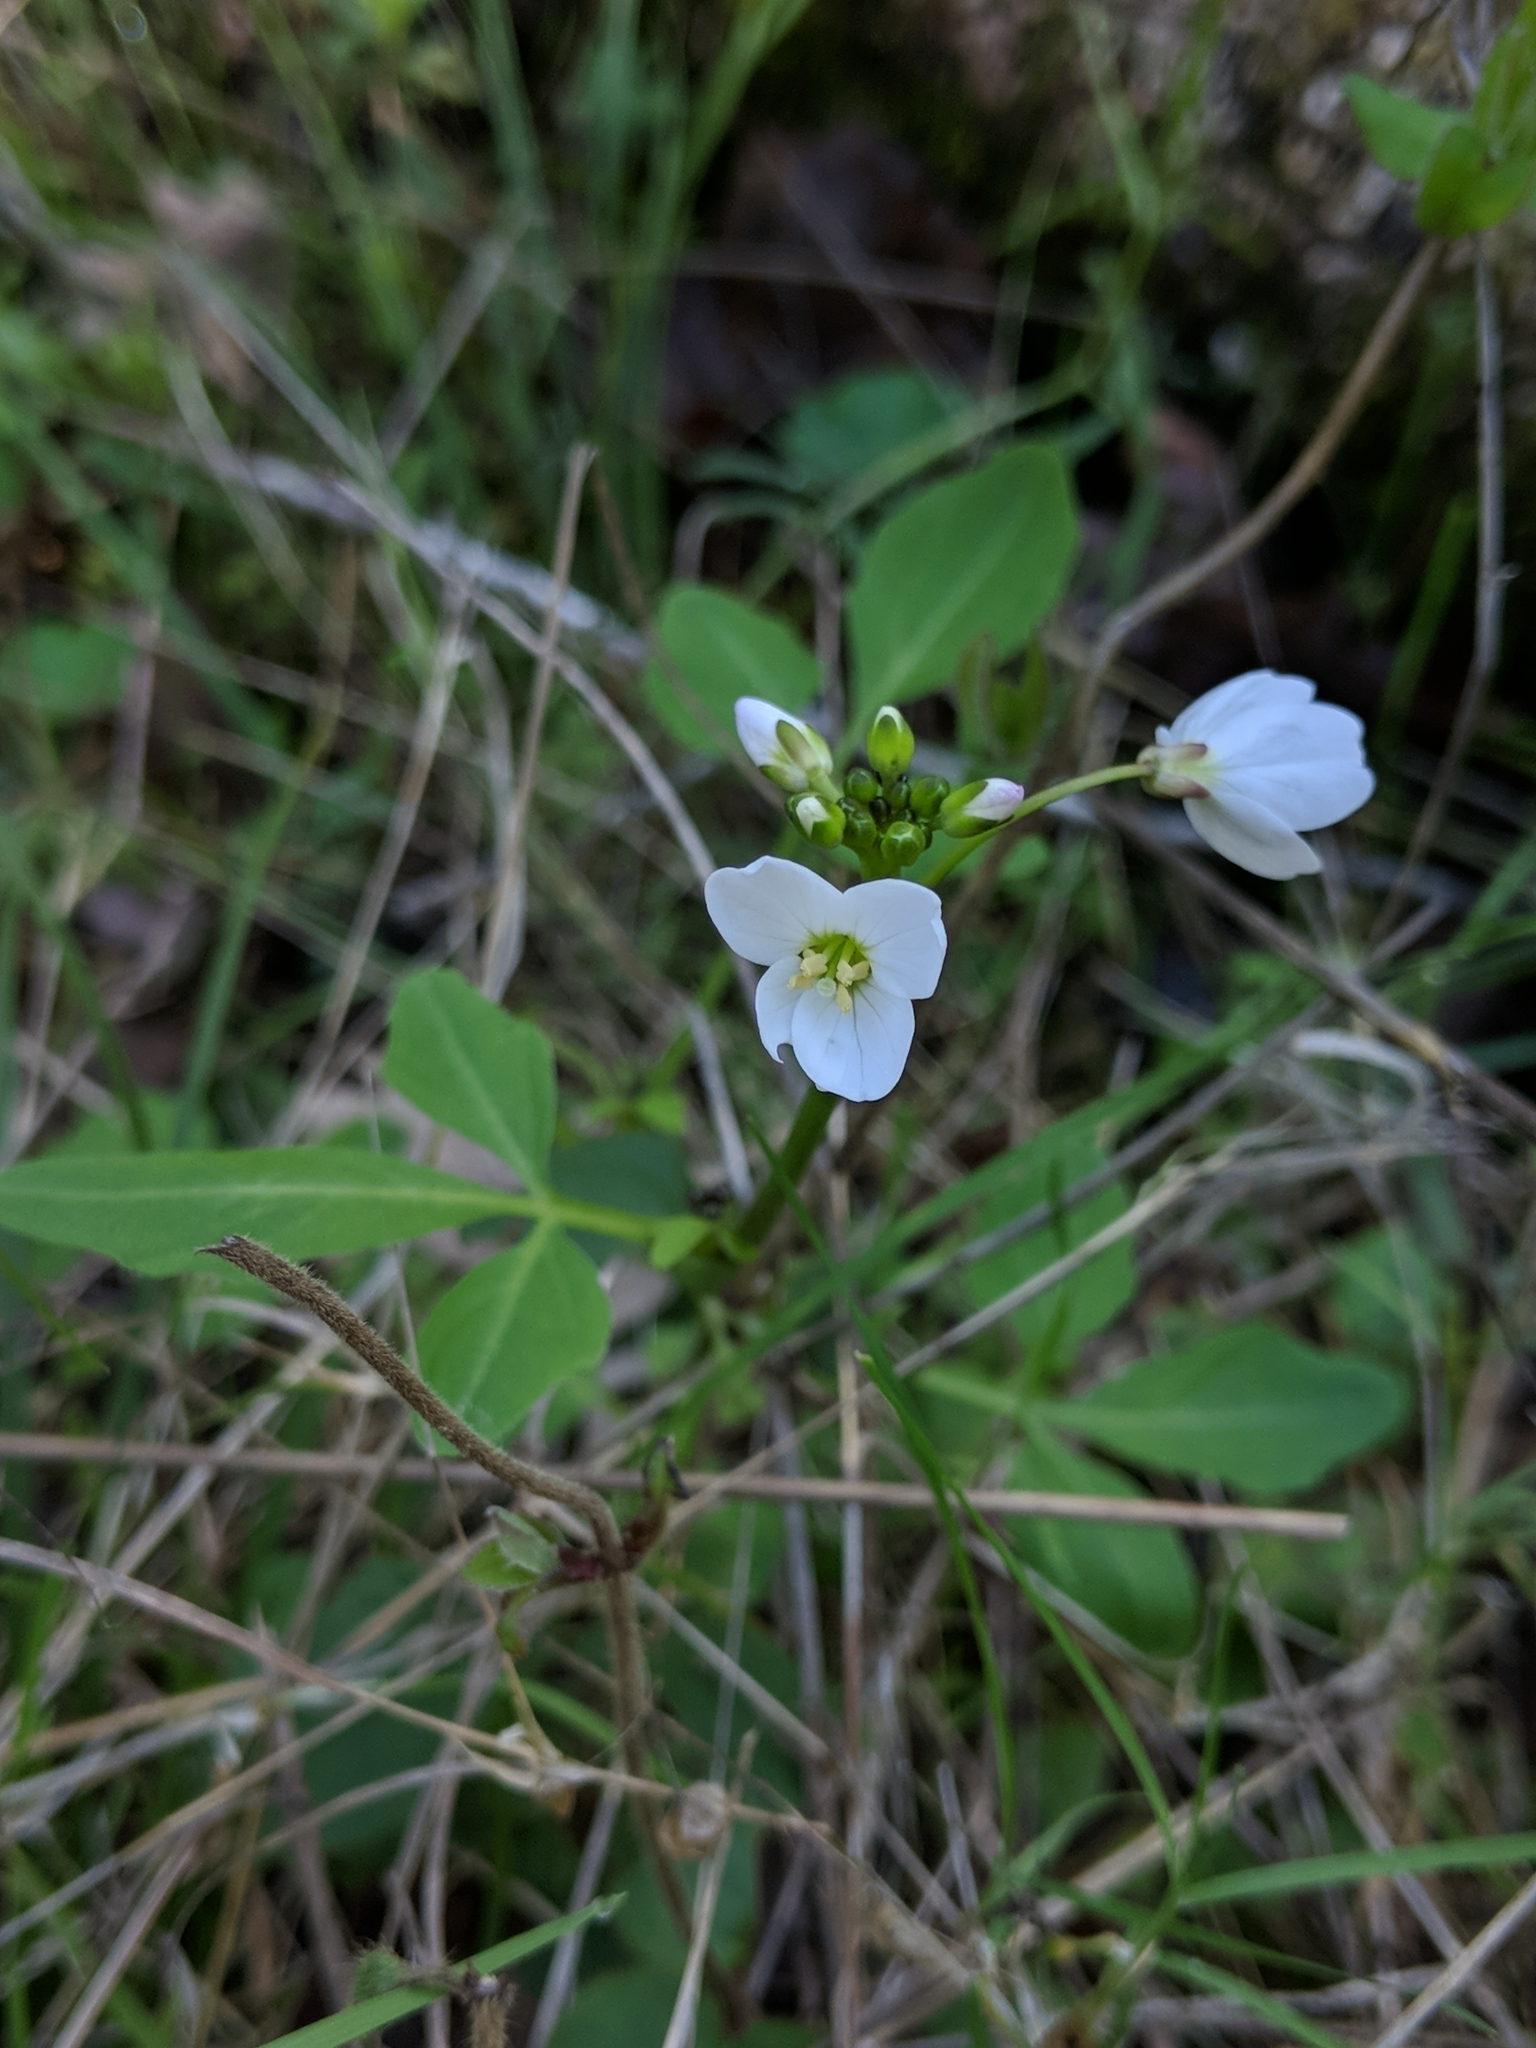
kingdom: Plantae
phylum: Tracheophyta
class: Magnoliopsida
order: Brassicales
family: Brassicaceae
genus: Cardamine
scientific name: Cardamine californica
